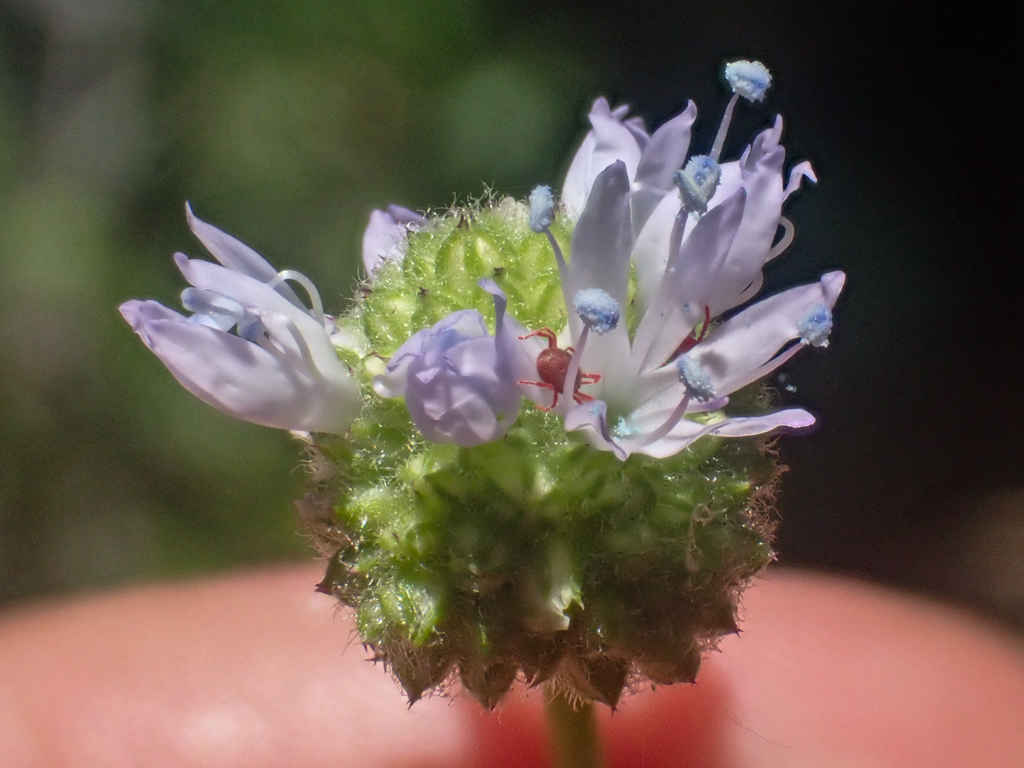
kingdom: Plantae
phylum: Tracheophyta
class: Magnoliopsida
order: Ericales
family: Polemoniaceae
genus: Gilia
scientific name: Gilia capitata
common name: Bluehead gilia
